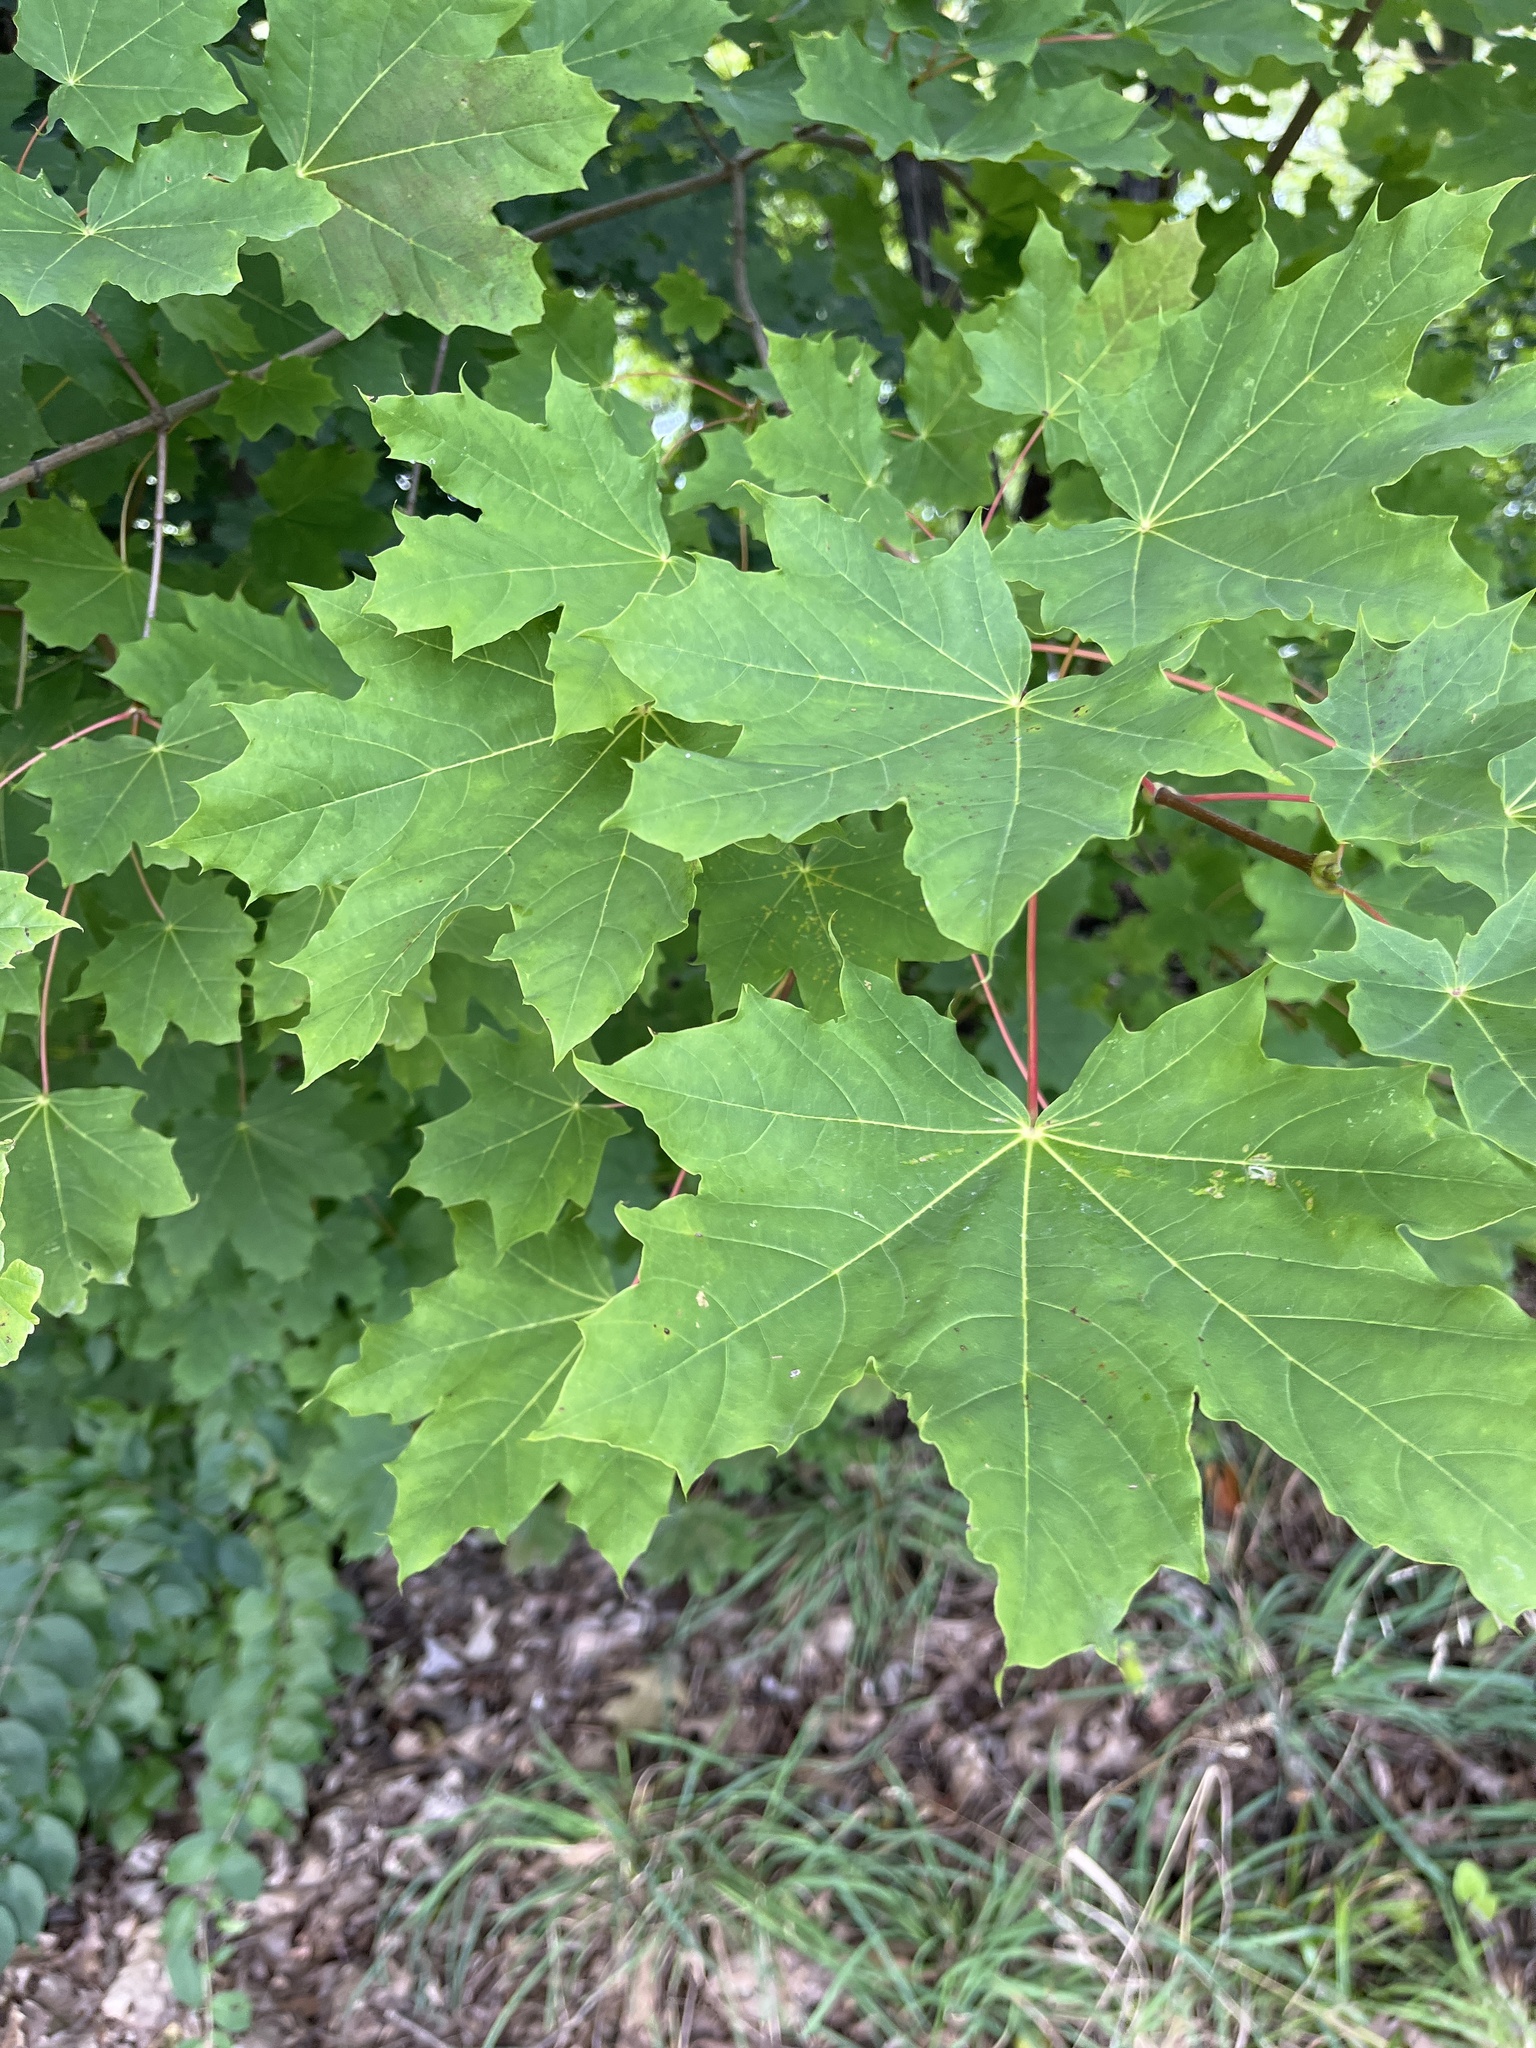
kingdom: Plantae
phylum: Tracheophyta
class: Magnoliopsida
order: Sapindales
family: Sapindaceae
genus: Acer
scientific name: Acer platanoides
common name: Norway maple
